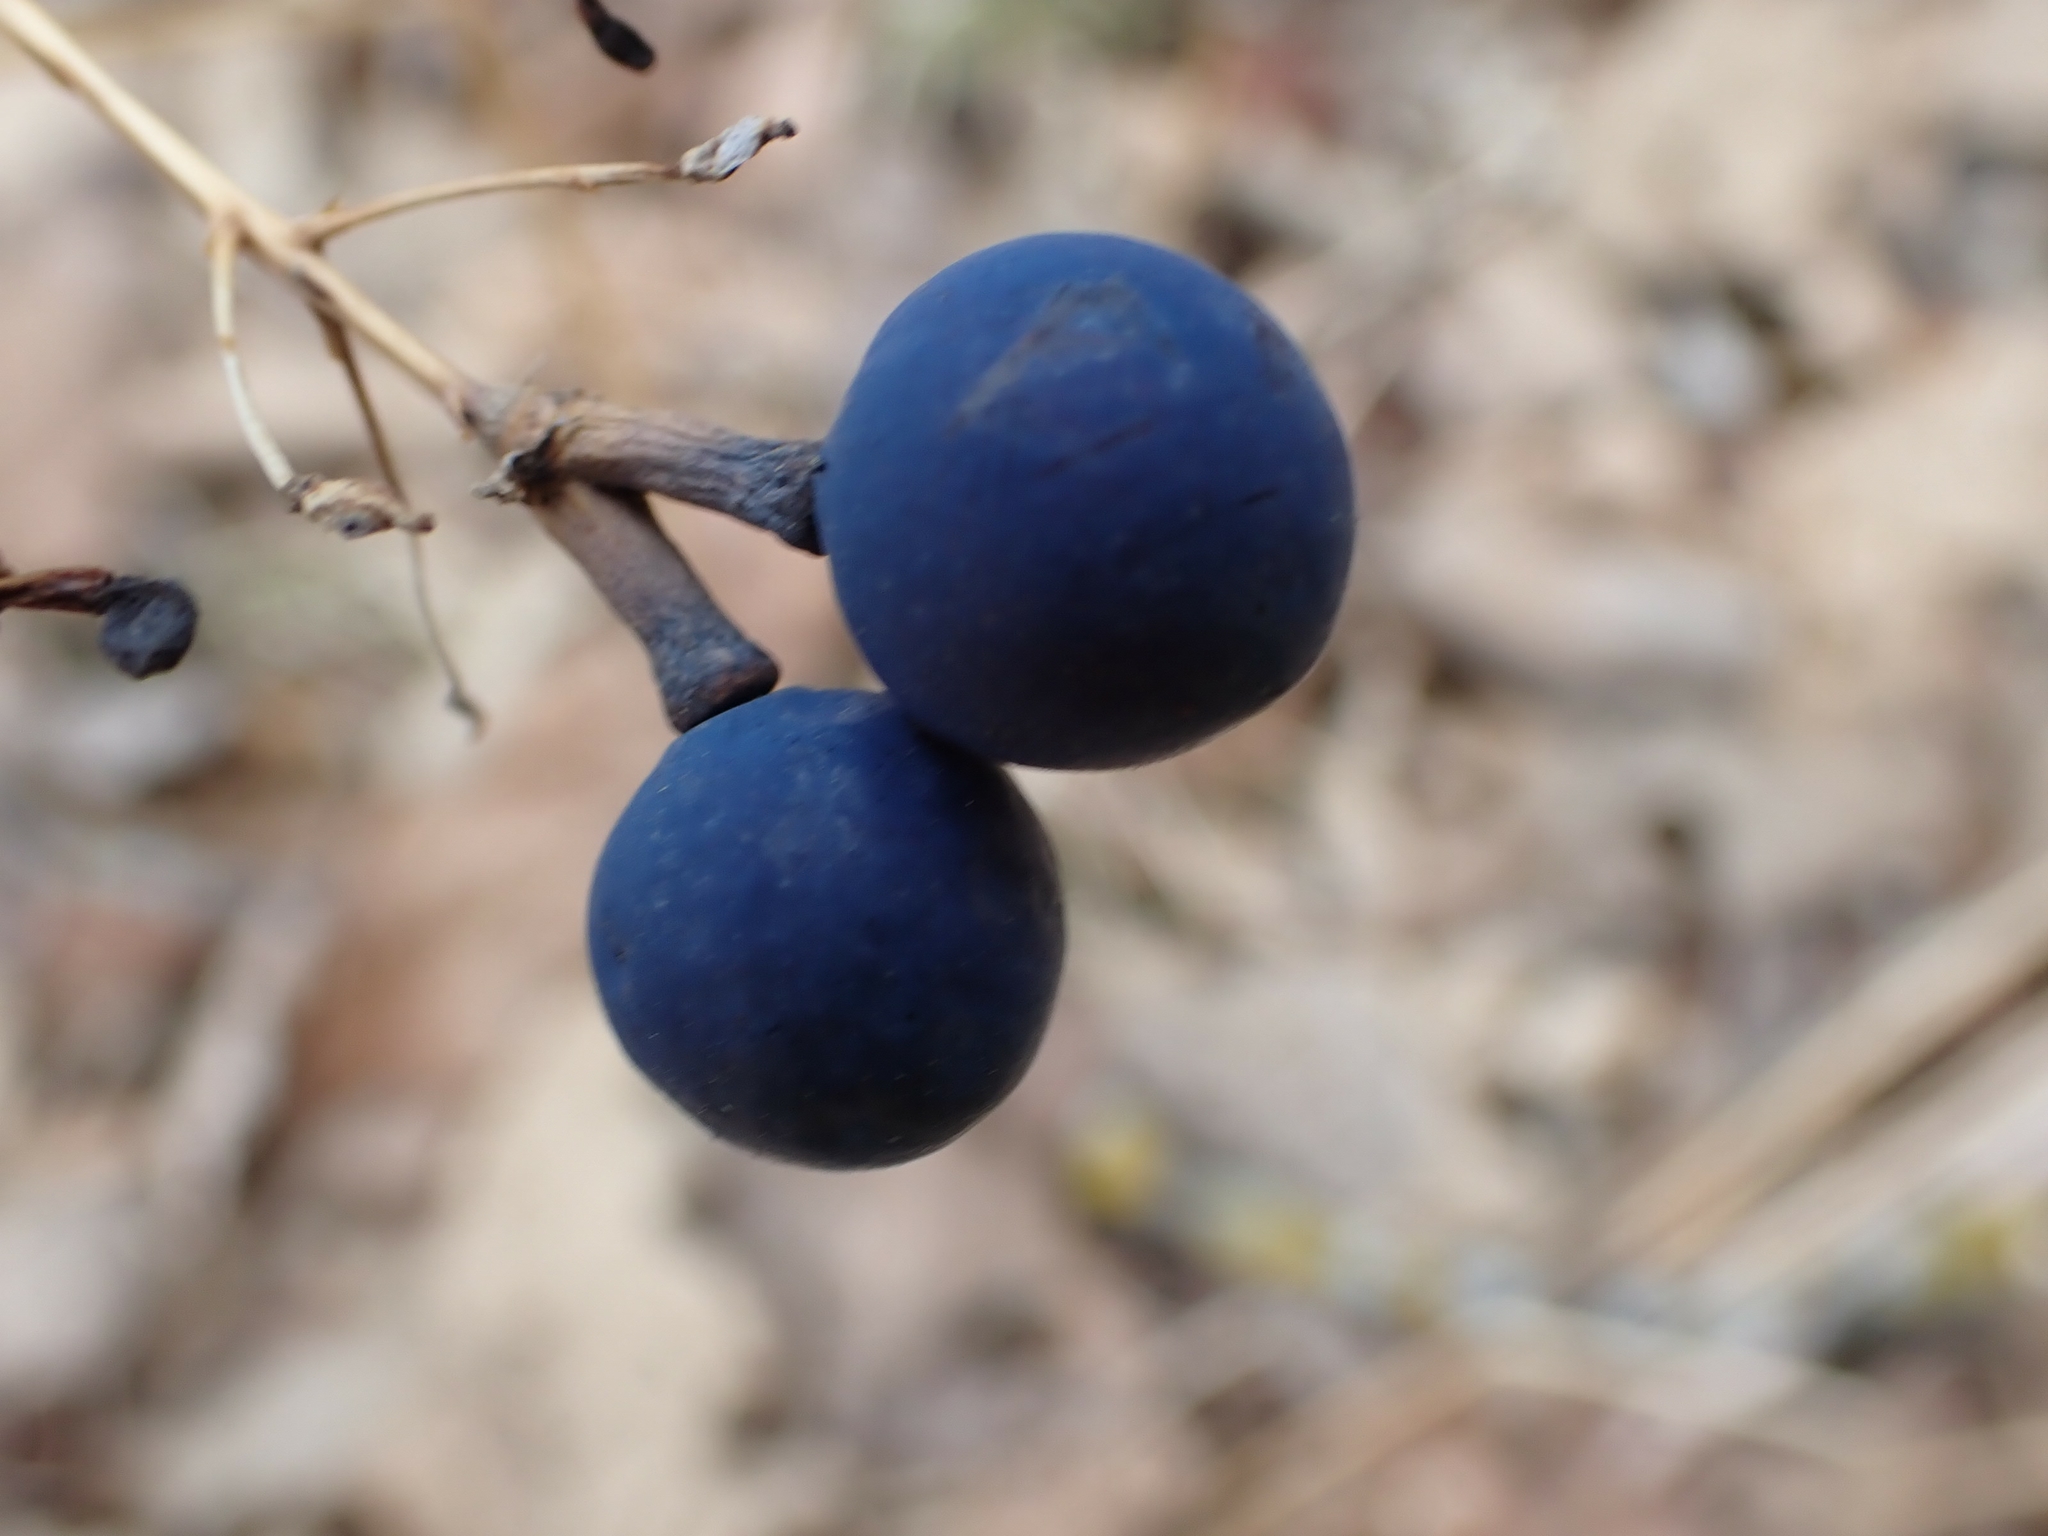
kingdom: Plantae
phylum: Tracheophyta
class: Magnoliopsida
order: Ranunculales
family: Berberidaceae
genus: Caulophyllum
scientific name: Caulophyllum thalictroides
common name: Blue cohosh
